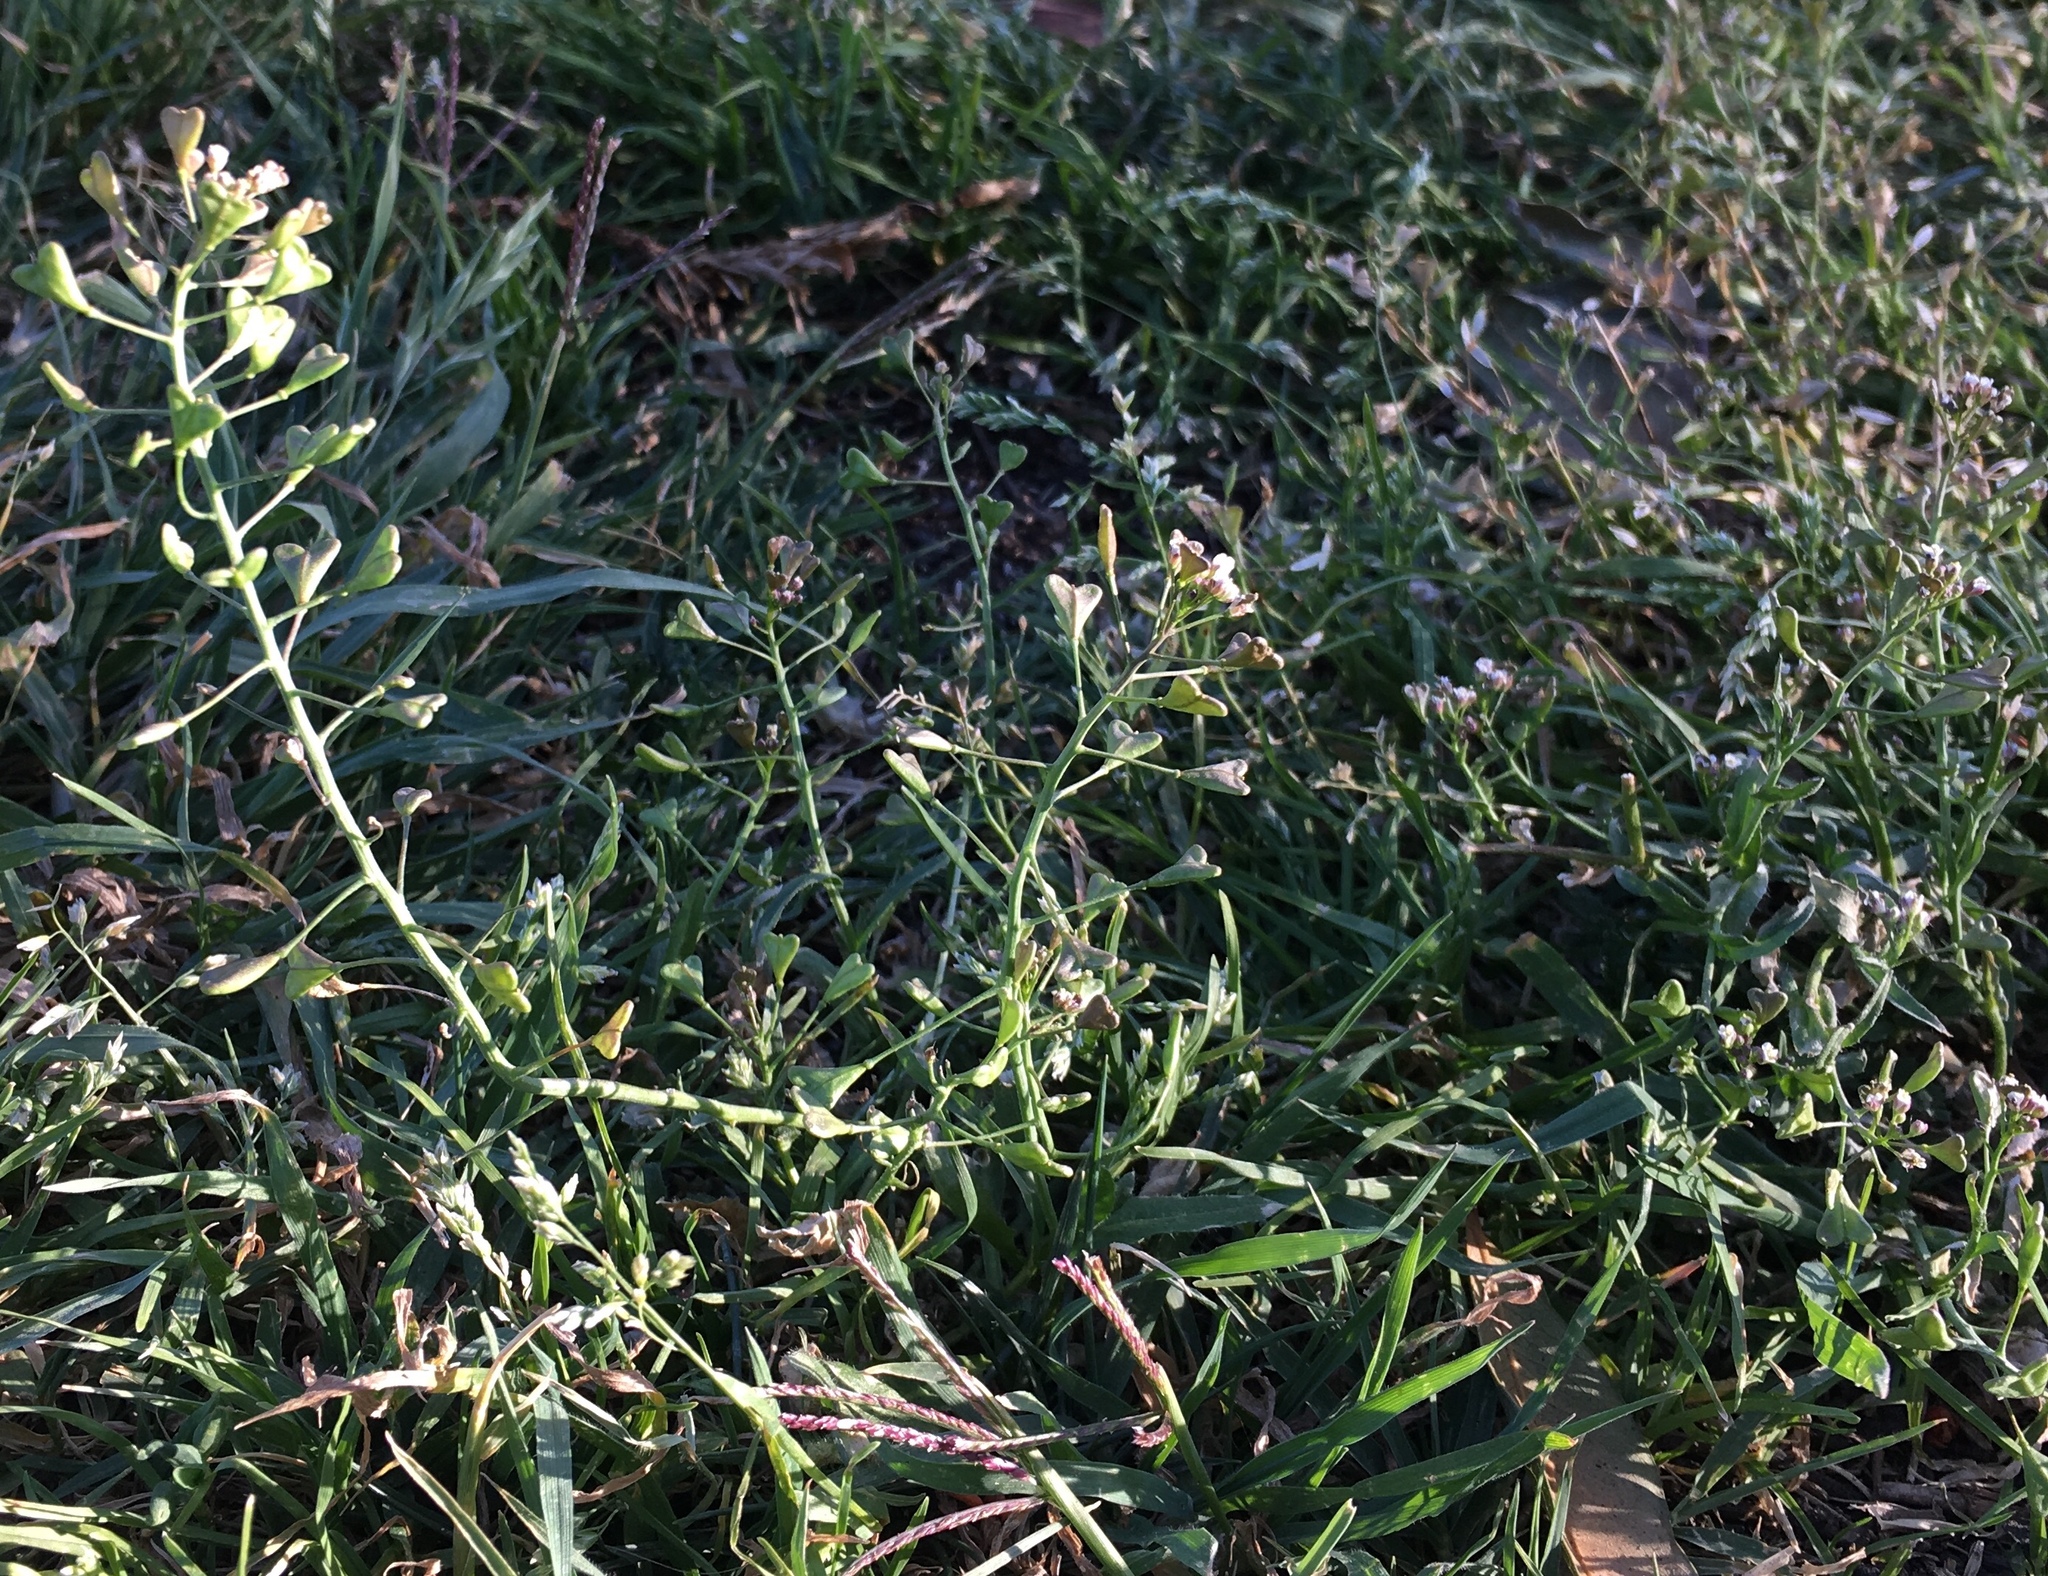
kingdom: Plantae
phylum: Tracheophyta
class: Magnoliopsida
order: Brassicales
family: Brassicaceae
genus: Capsella
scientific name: Capsella bursa-pastoris
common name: Shepherd's purse
